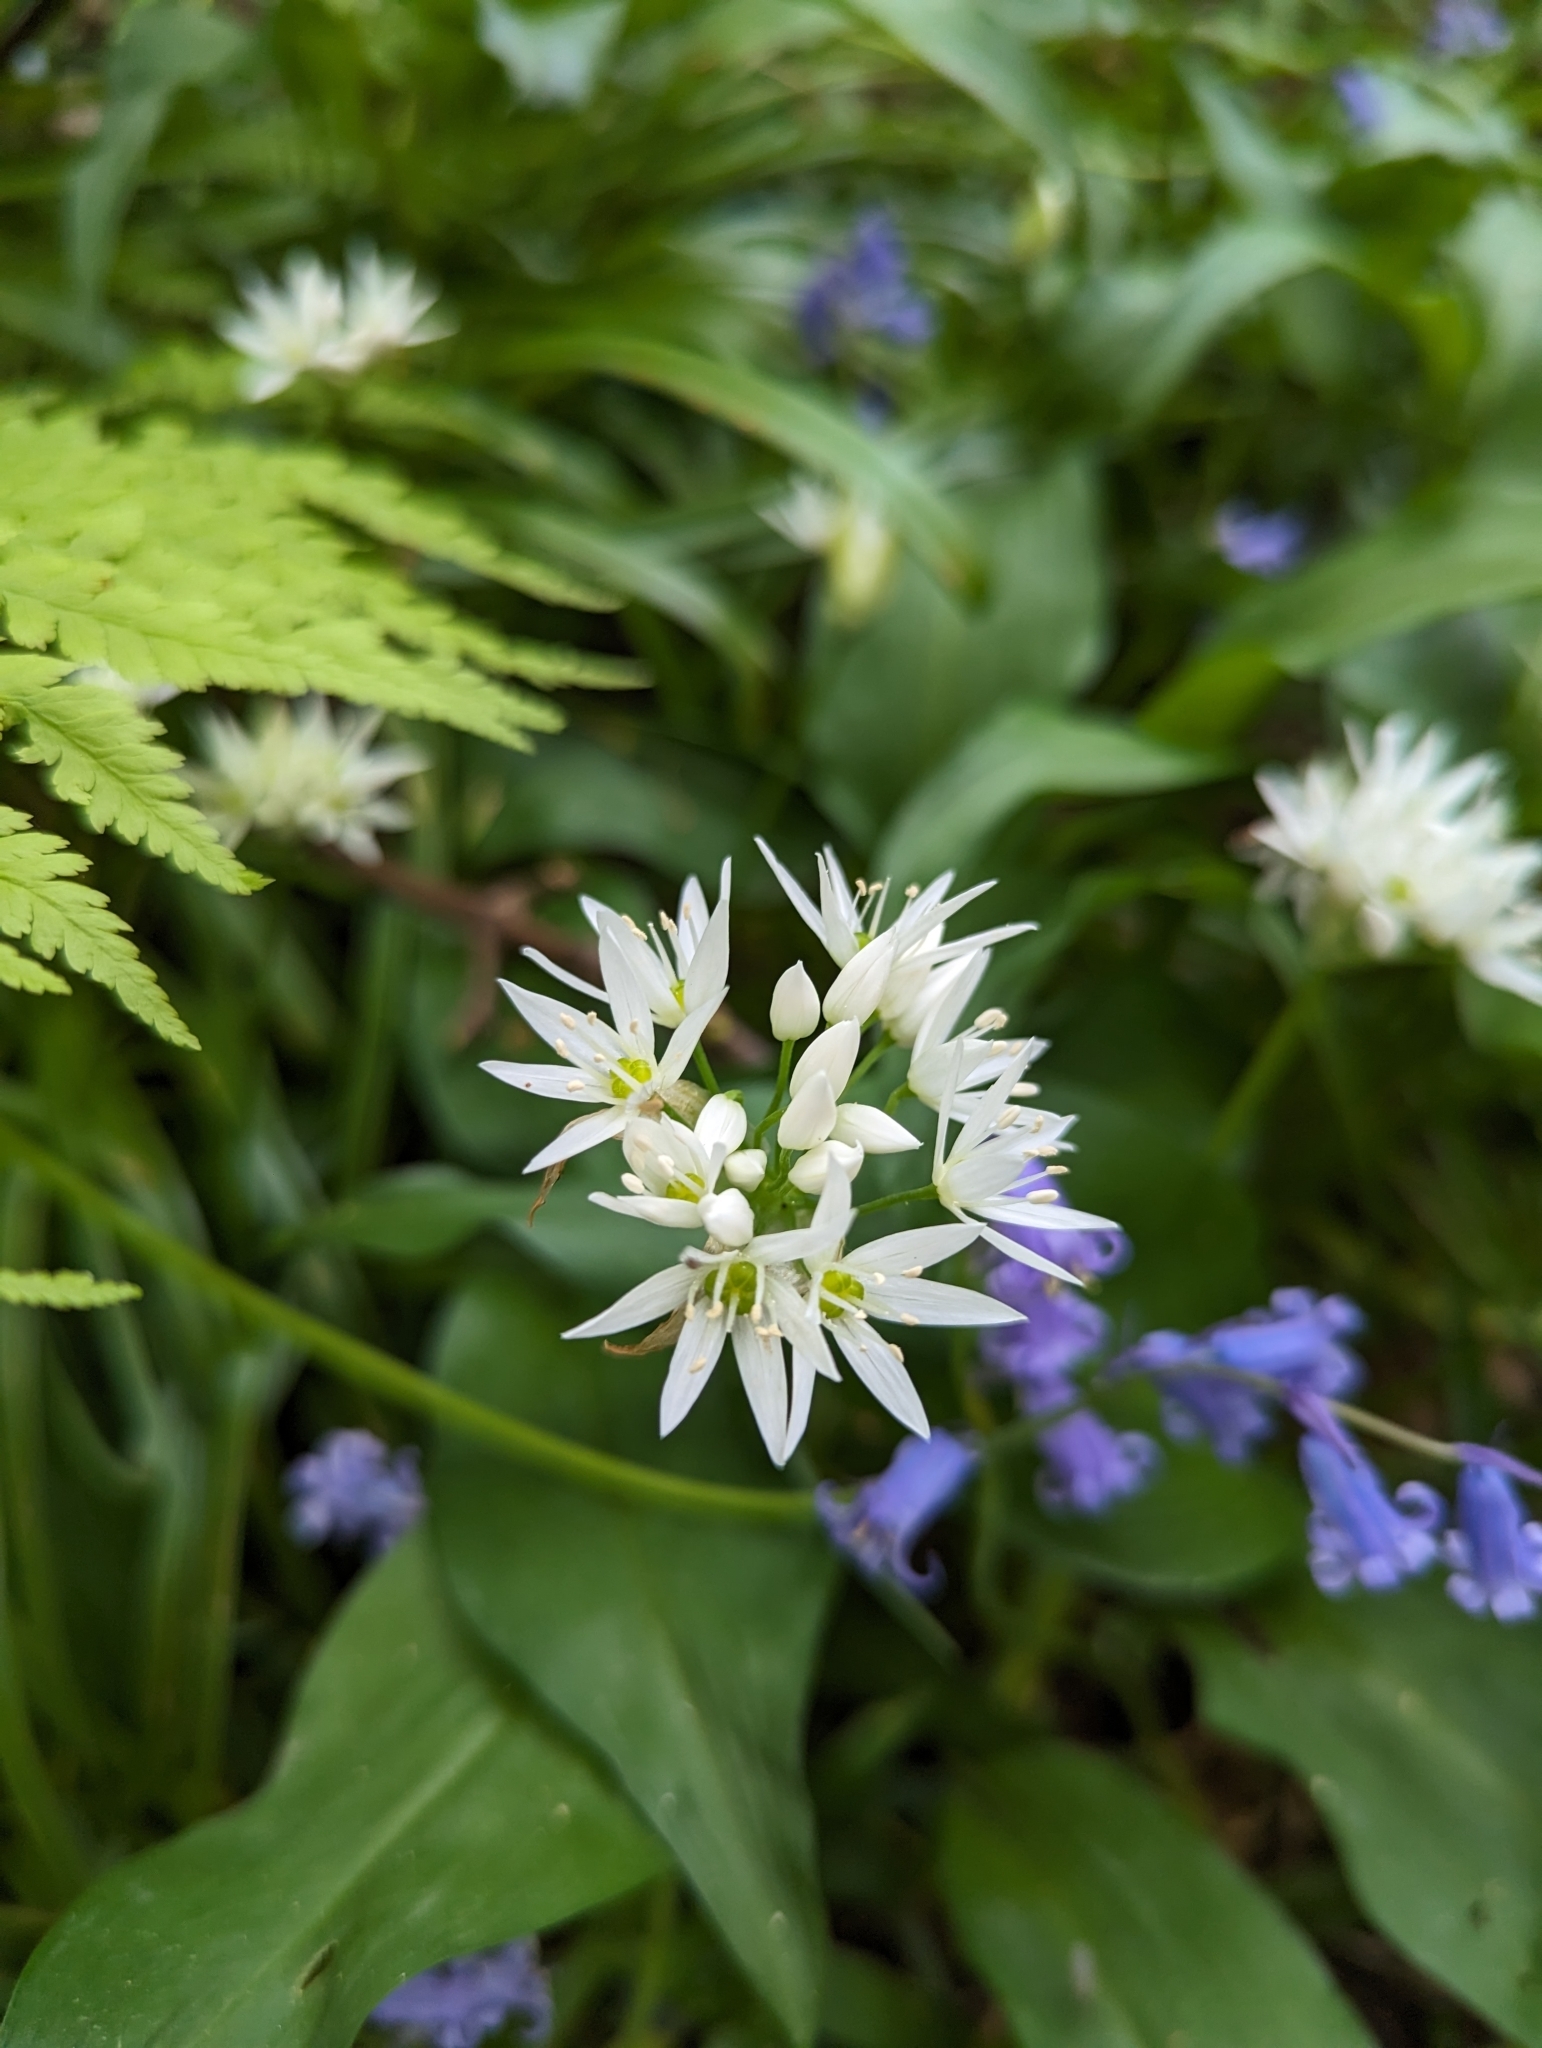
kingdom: Plantae
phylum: Tracheophyta
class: Liliopsida
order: Asparagales
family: Amaryllidaceae
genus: Allium
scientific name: Allium ursinum
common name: Ramsons
